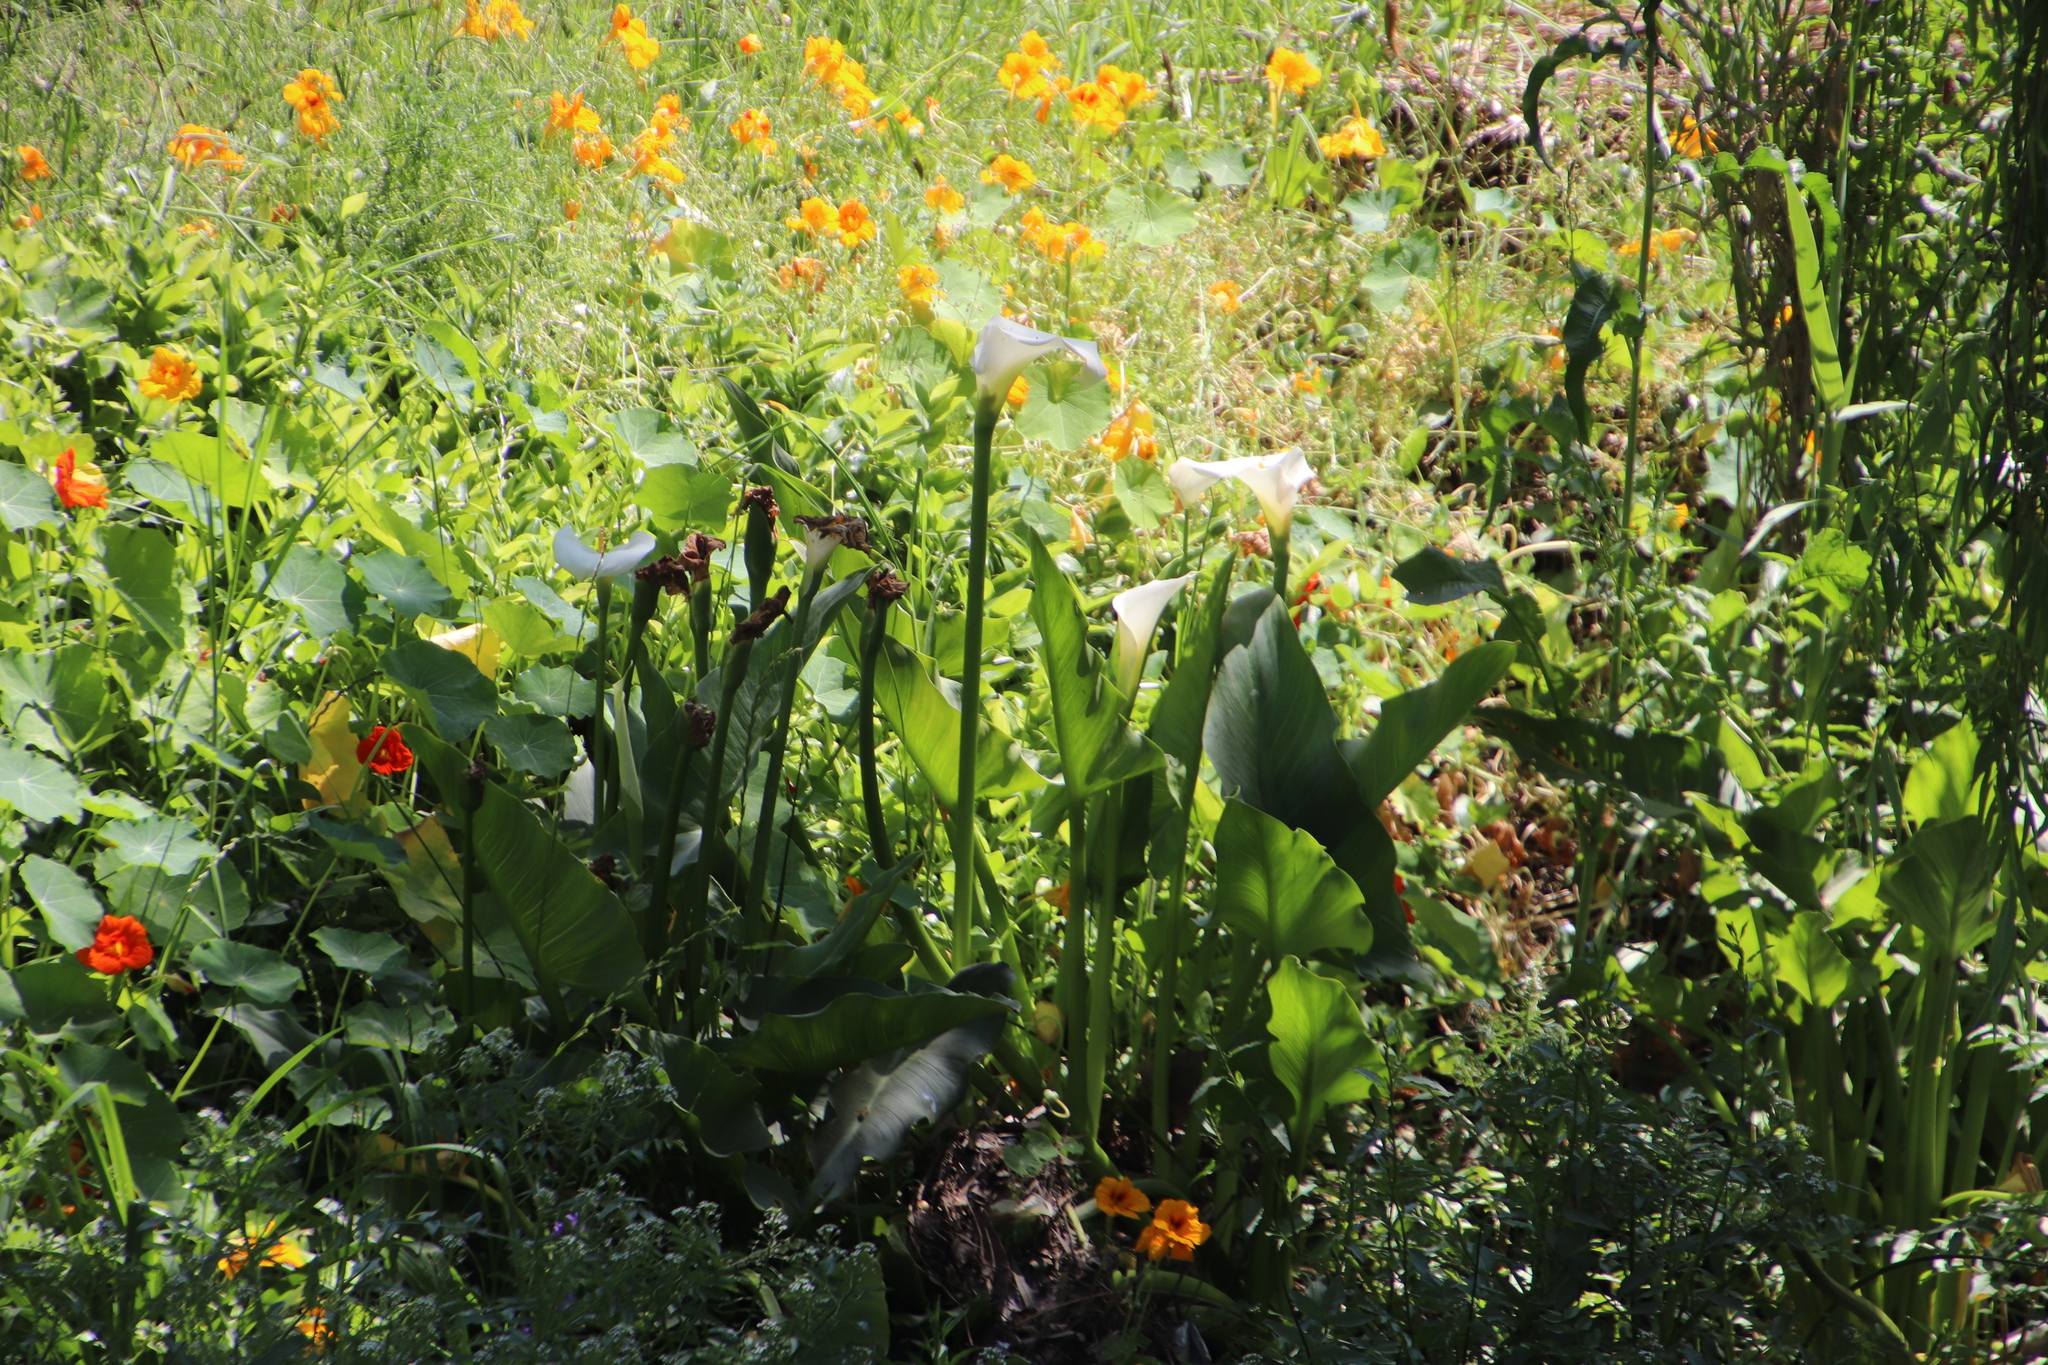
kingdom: Plantae
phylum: Tracheophyta
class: Liliopsida
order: Alismatales
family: Araceae
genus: Zantedeschia
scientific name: Zantedeschia aethiopica
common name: Altar-lily
